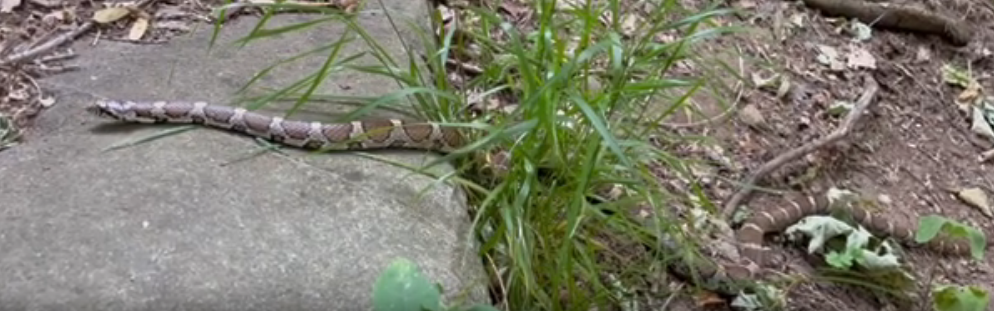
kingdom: Animalia
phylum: Chordata
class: Squamata
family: Colubridae
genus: Lampropeltis
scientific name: Lampropeltis triangulum
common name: Eastern milksnake
